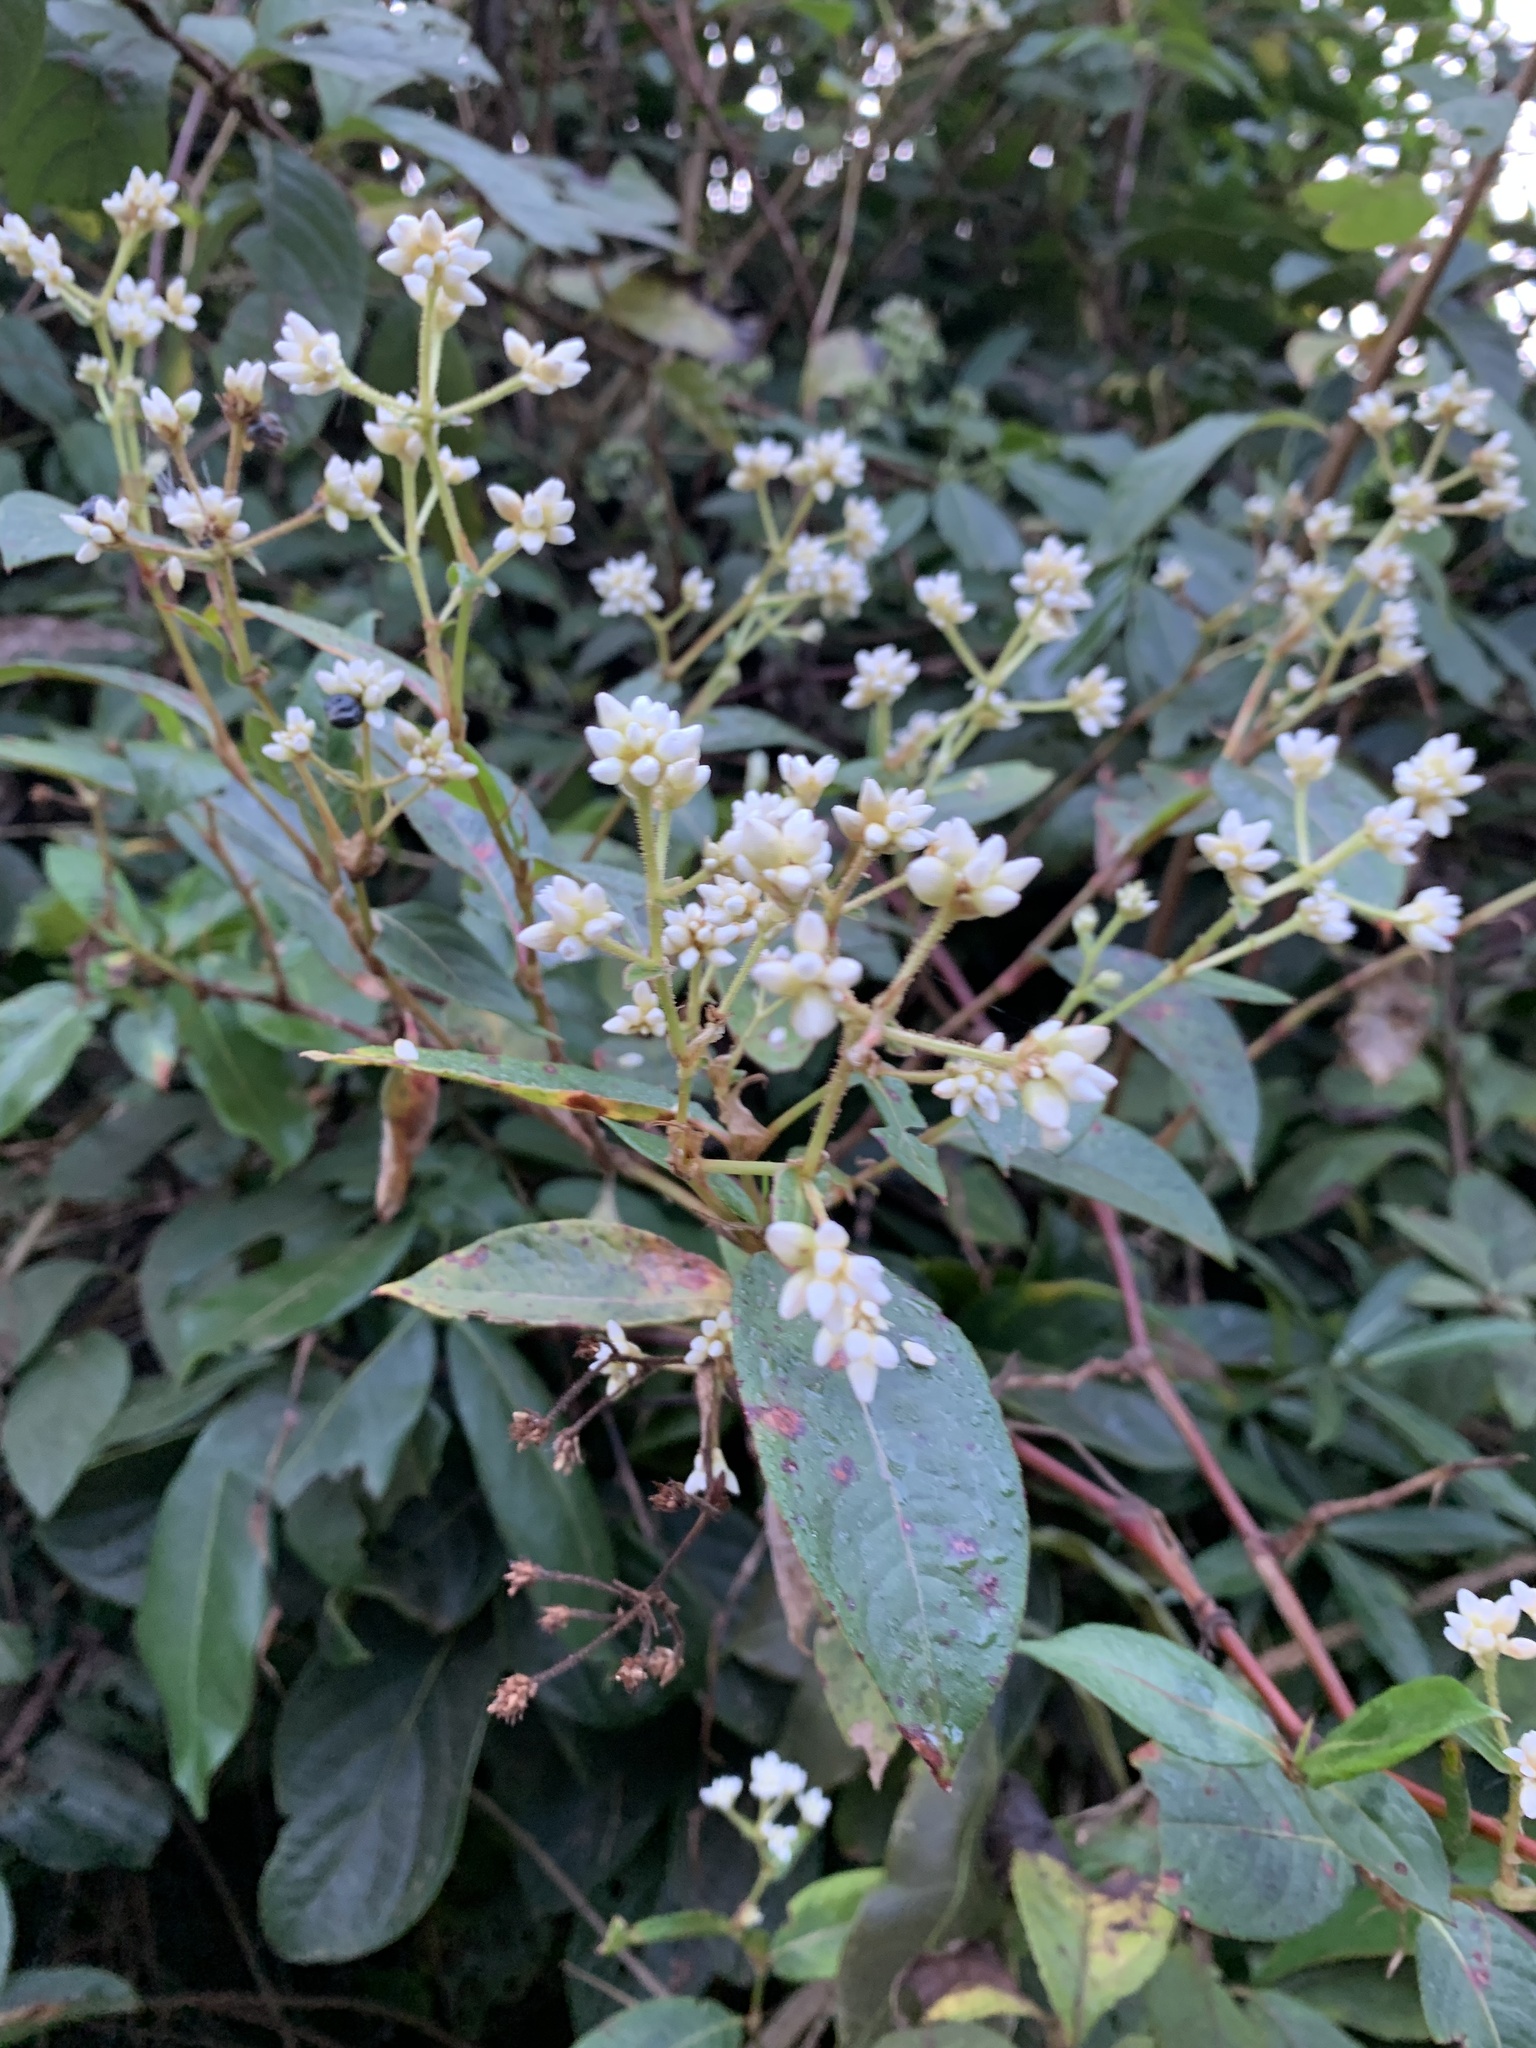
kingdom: Plantae
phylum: Tracheophyta
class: Magnoliopsida
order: Caryophyllales
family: Polygonaceae
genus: Persicaria
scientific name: Persicaria chinensis
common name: Chinese knotweed
